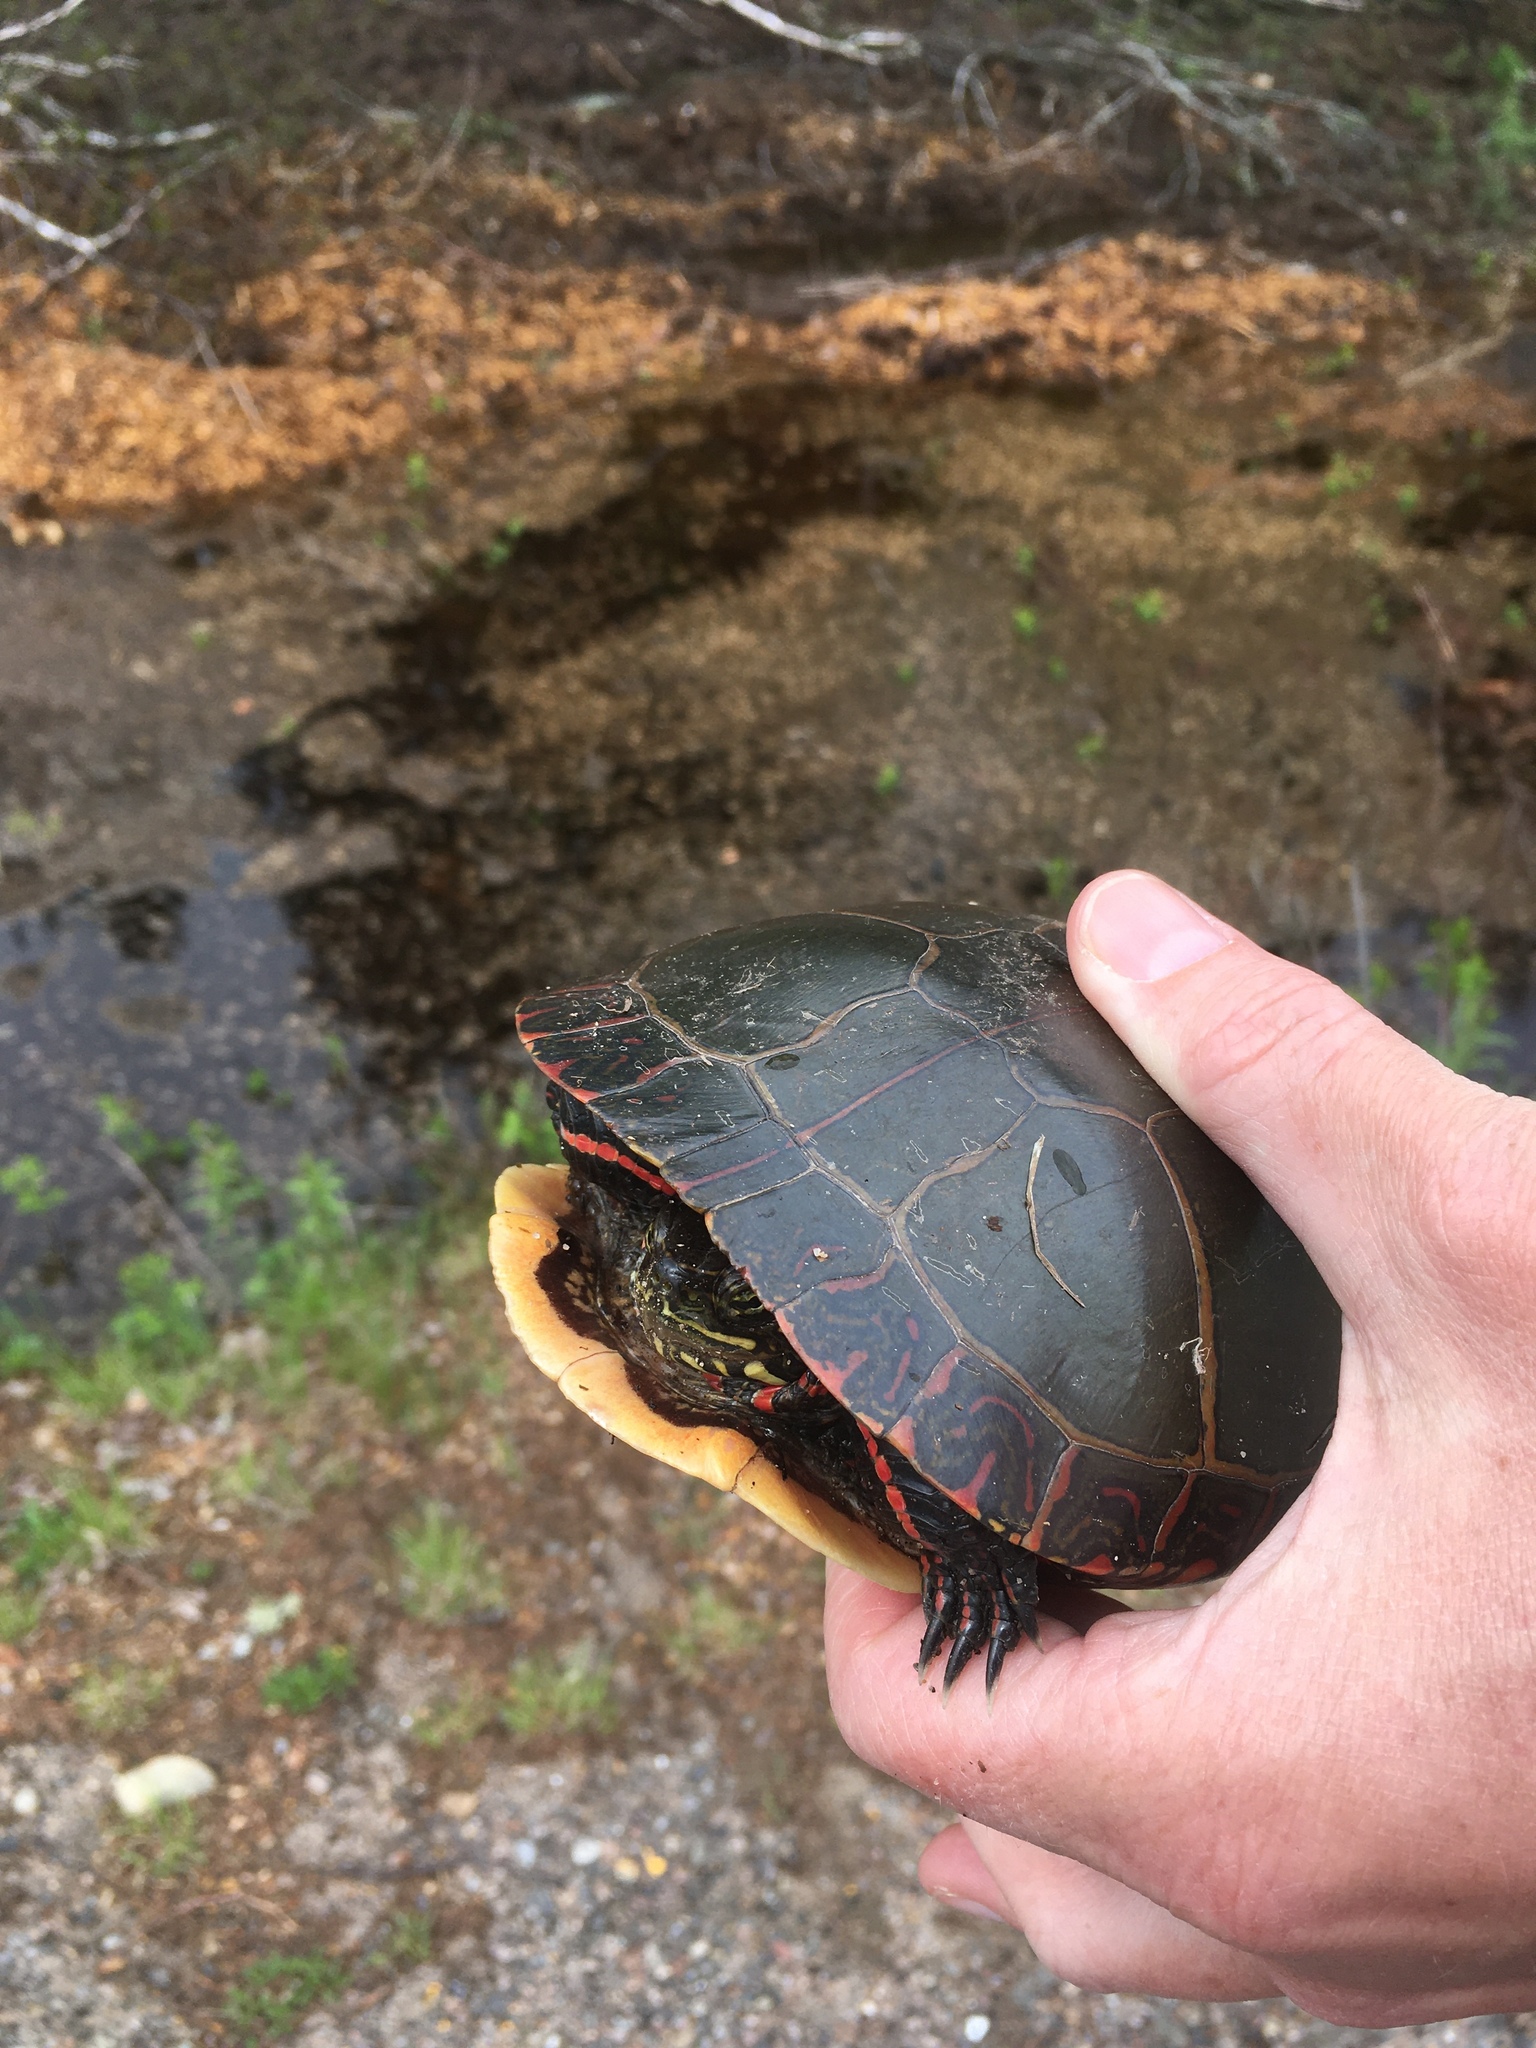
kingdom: Animalia
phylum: Chordata
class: Testudines
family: Emydidae
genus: Chrysemys
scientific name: Chrysemys picta
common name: Painted turtle
